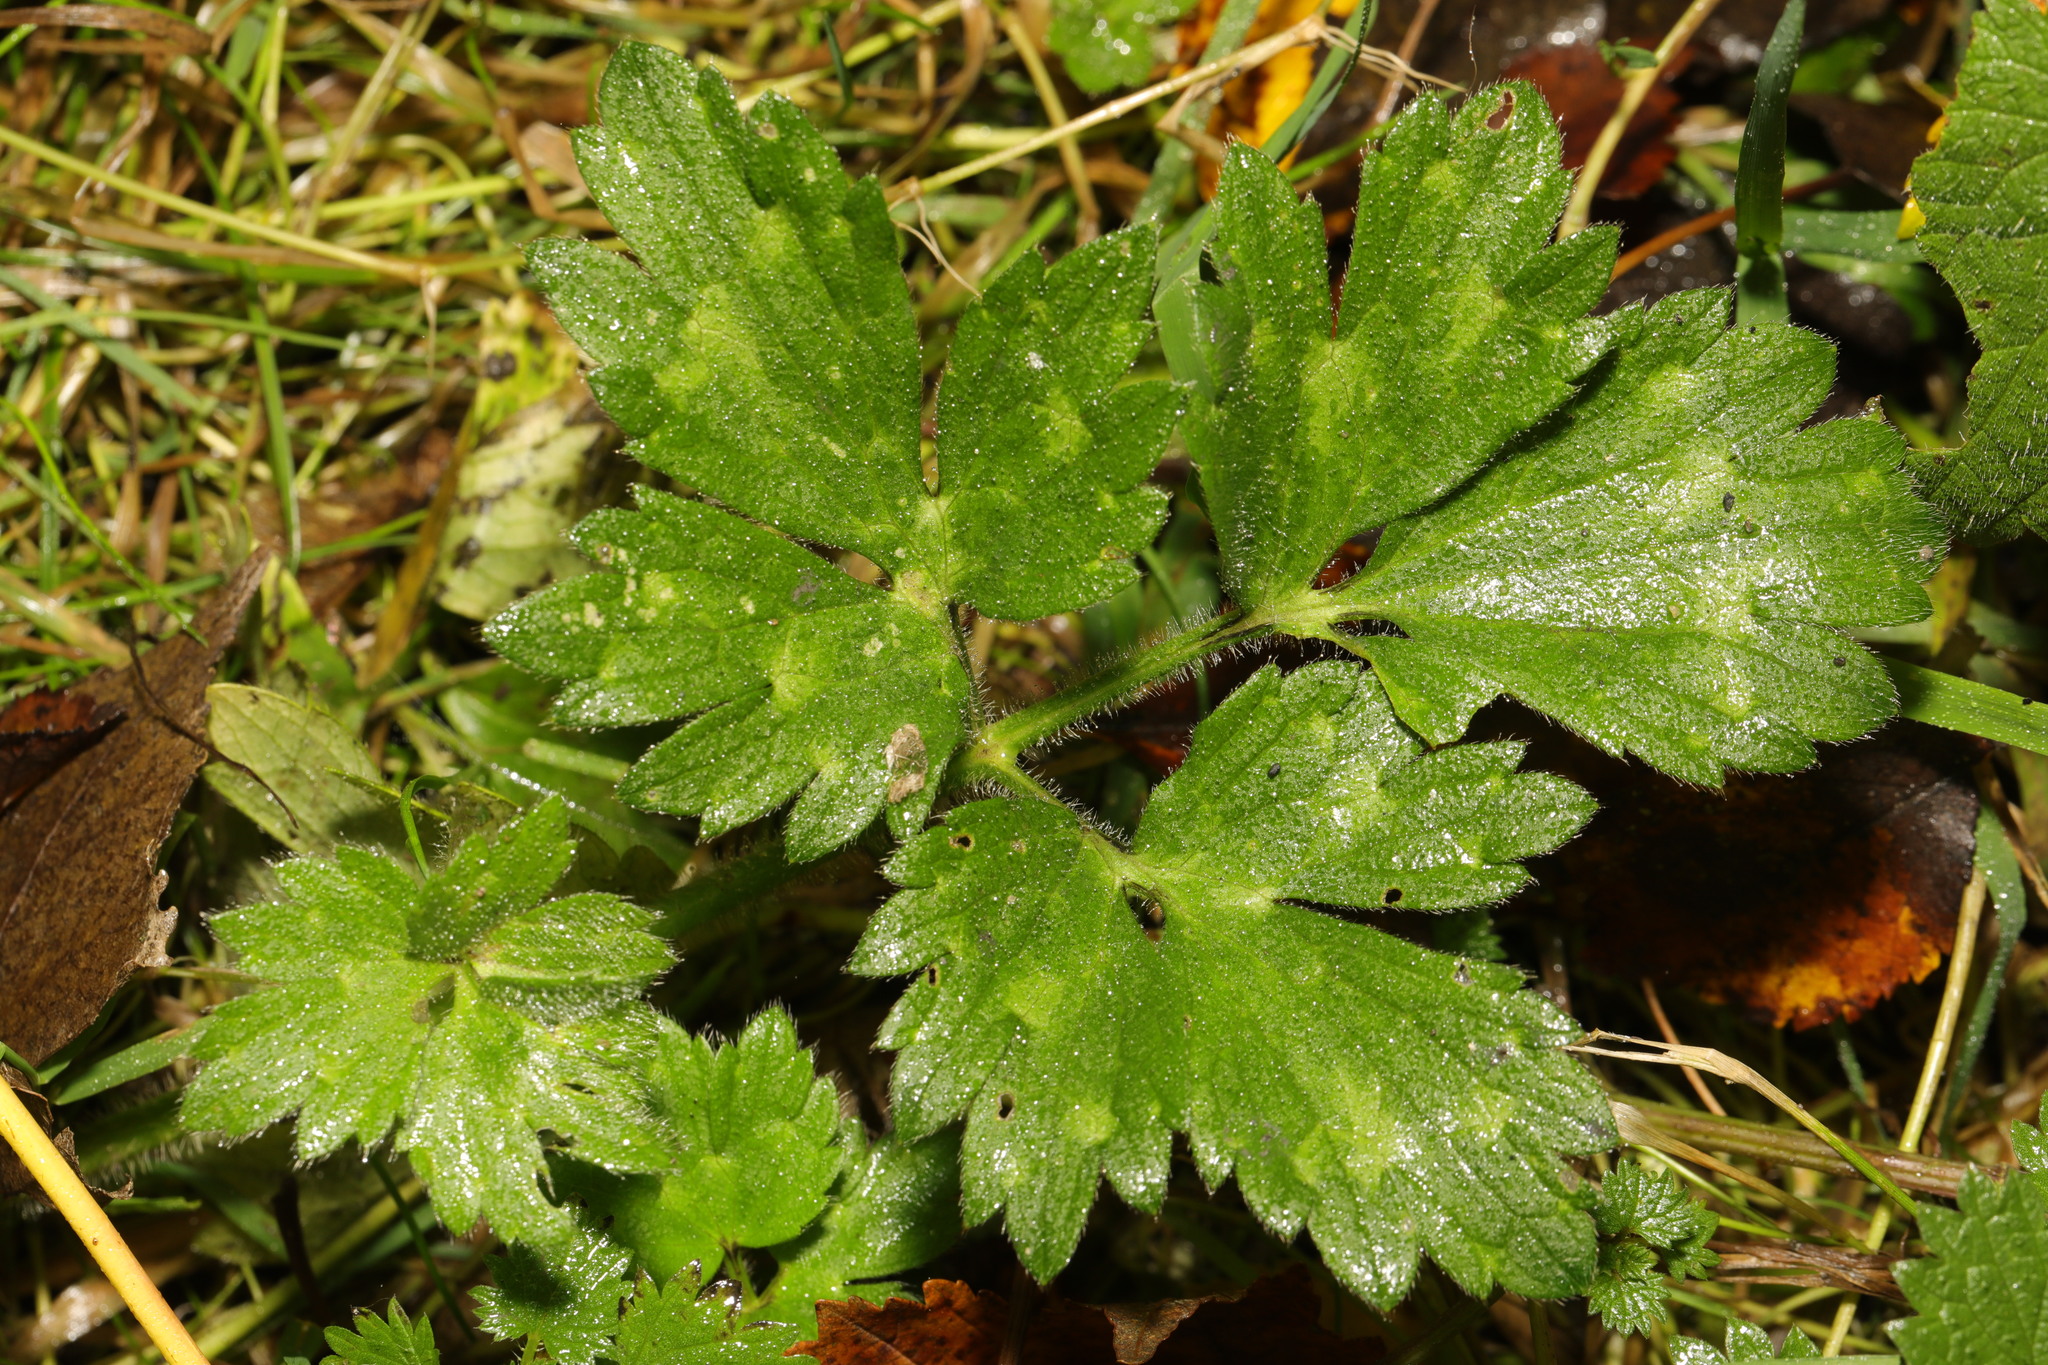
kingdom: Plantae
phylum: Tracheophyta
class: Magnoliopsida
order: Ranunculales
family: Ranunculaceae
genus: Ranunculus
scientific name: Ranunculus repens
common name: Creeping buttercup
